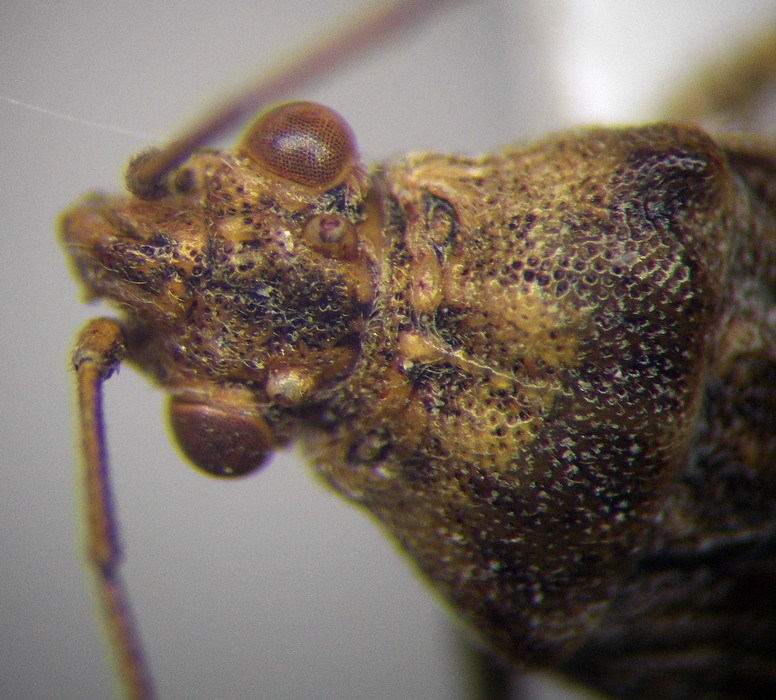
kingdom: Animalia
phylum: Arthropoda
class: Insecta
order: Hemiptera
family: Rhopalidae
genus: Stictopleurus
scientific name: Stictopleurus subtomentosus
